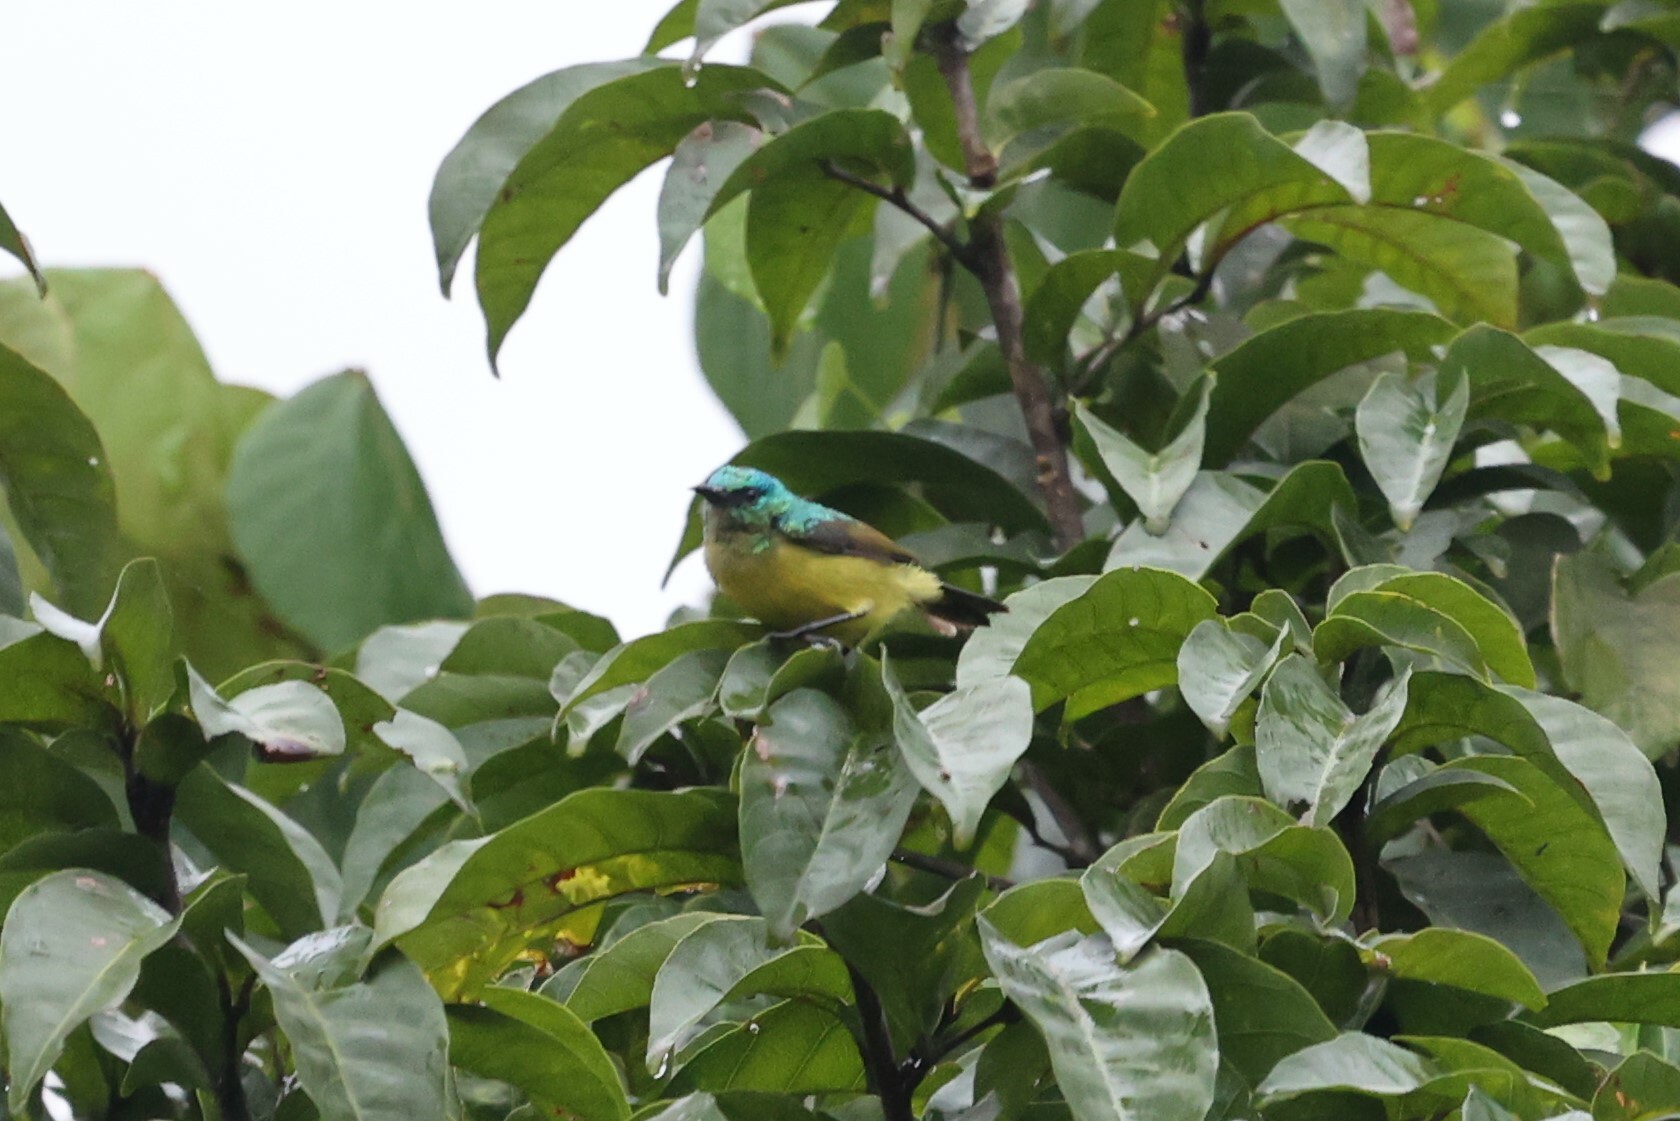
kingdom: Animalia
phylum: Chordata
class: Aves
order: Passeriformes
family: Nectariniidae
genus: Hedydipna
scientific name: Hedydipna collaris
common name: Collared sunbird
